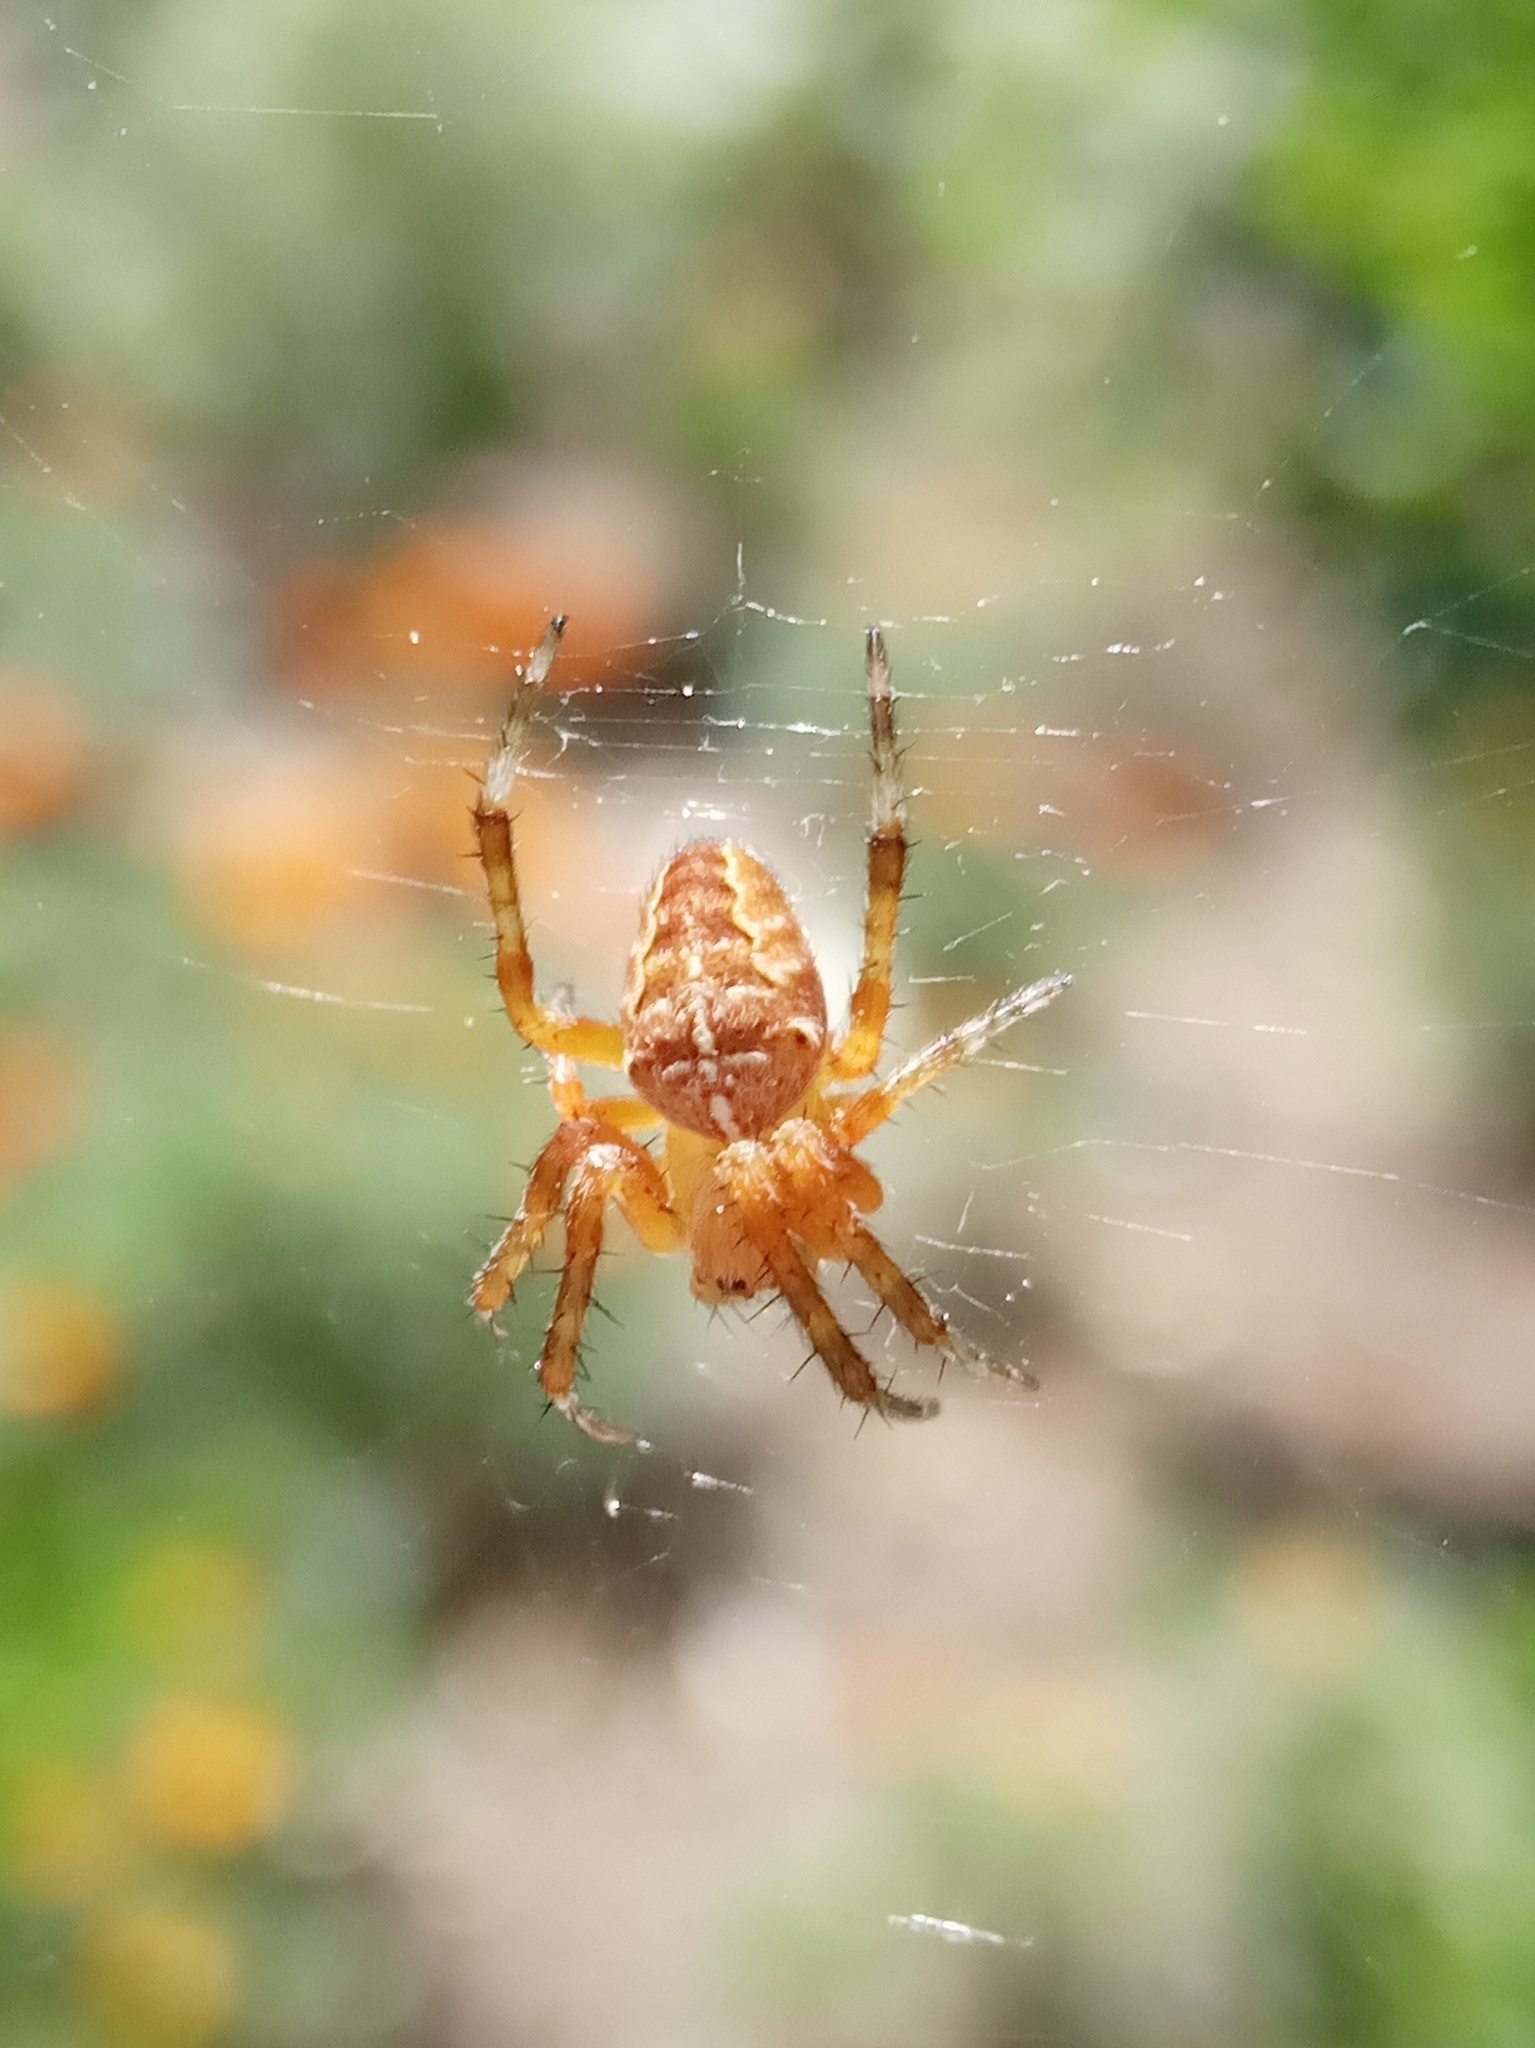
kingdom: Animalia
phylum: Arthropoda
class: Arachnida
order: Araneae
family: Araneidae
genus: Araneus
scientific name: Araneus diadematus
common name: Cross orbweaver
